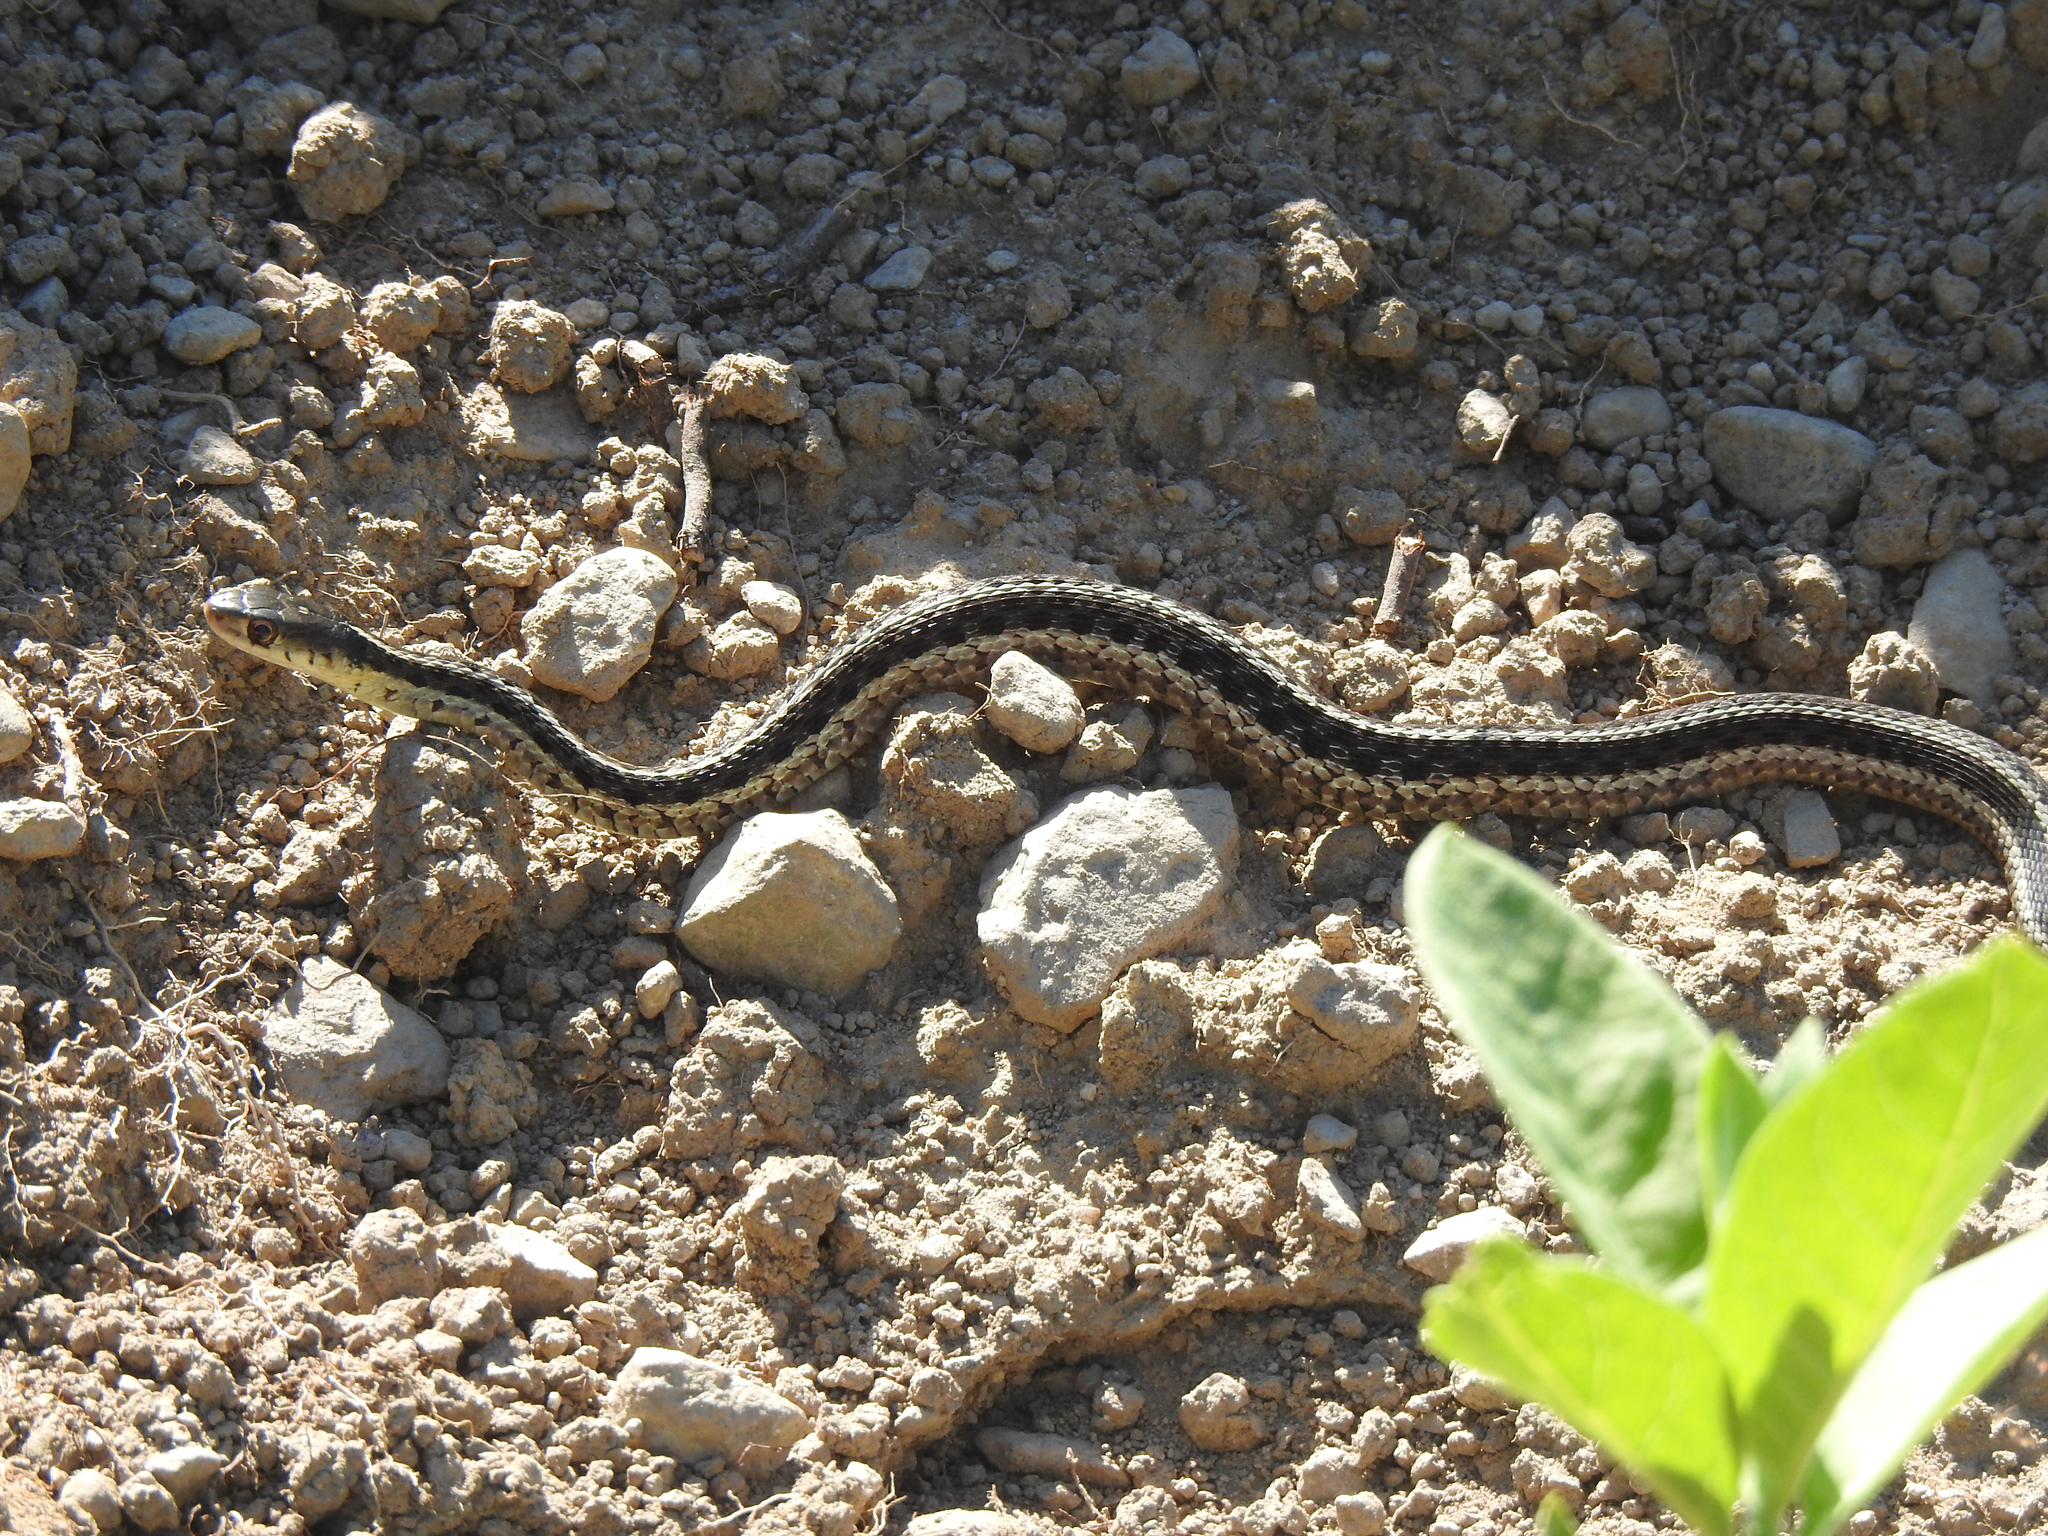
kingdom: Animalia
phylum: Chordata
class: Squamata
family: Colubridae
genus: Thamnophis
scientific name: Thamnophis sirtalis
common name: Common garter snake
